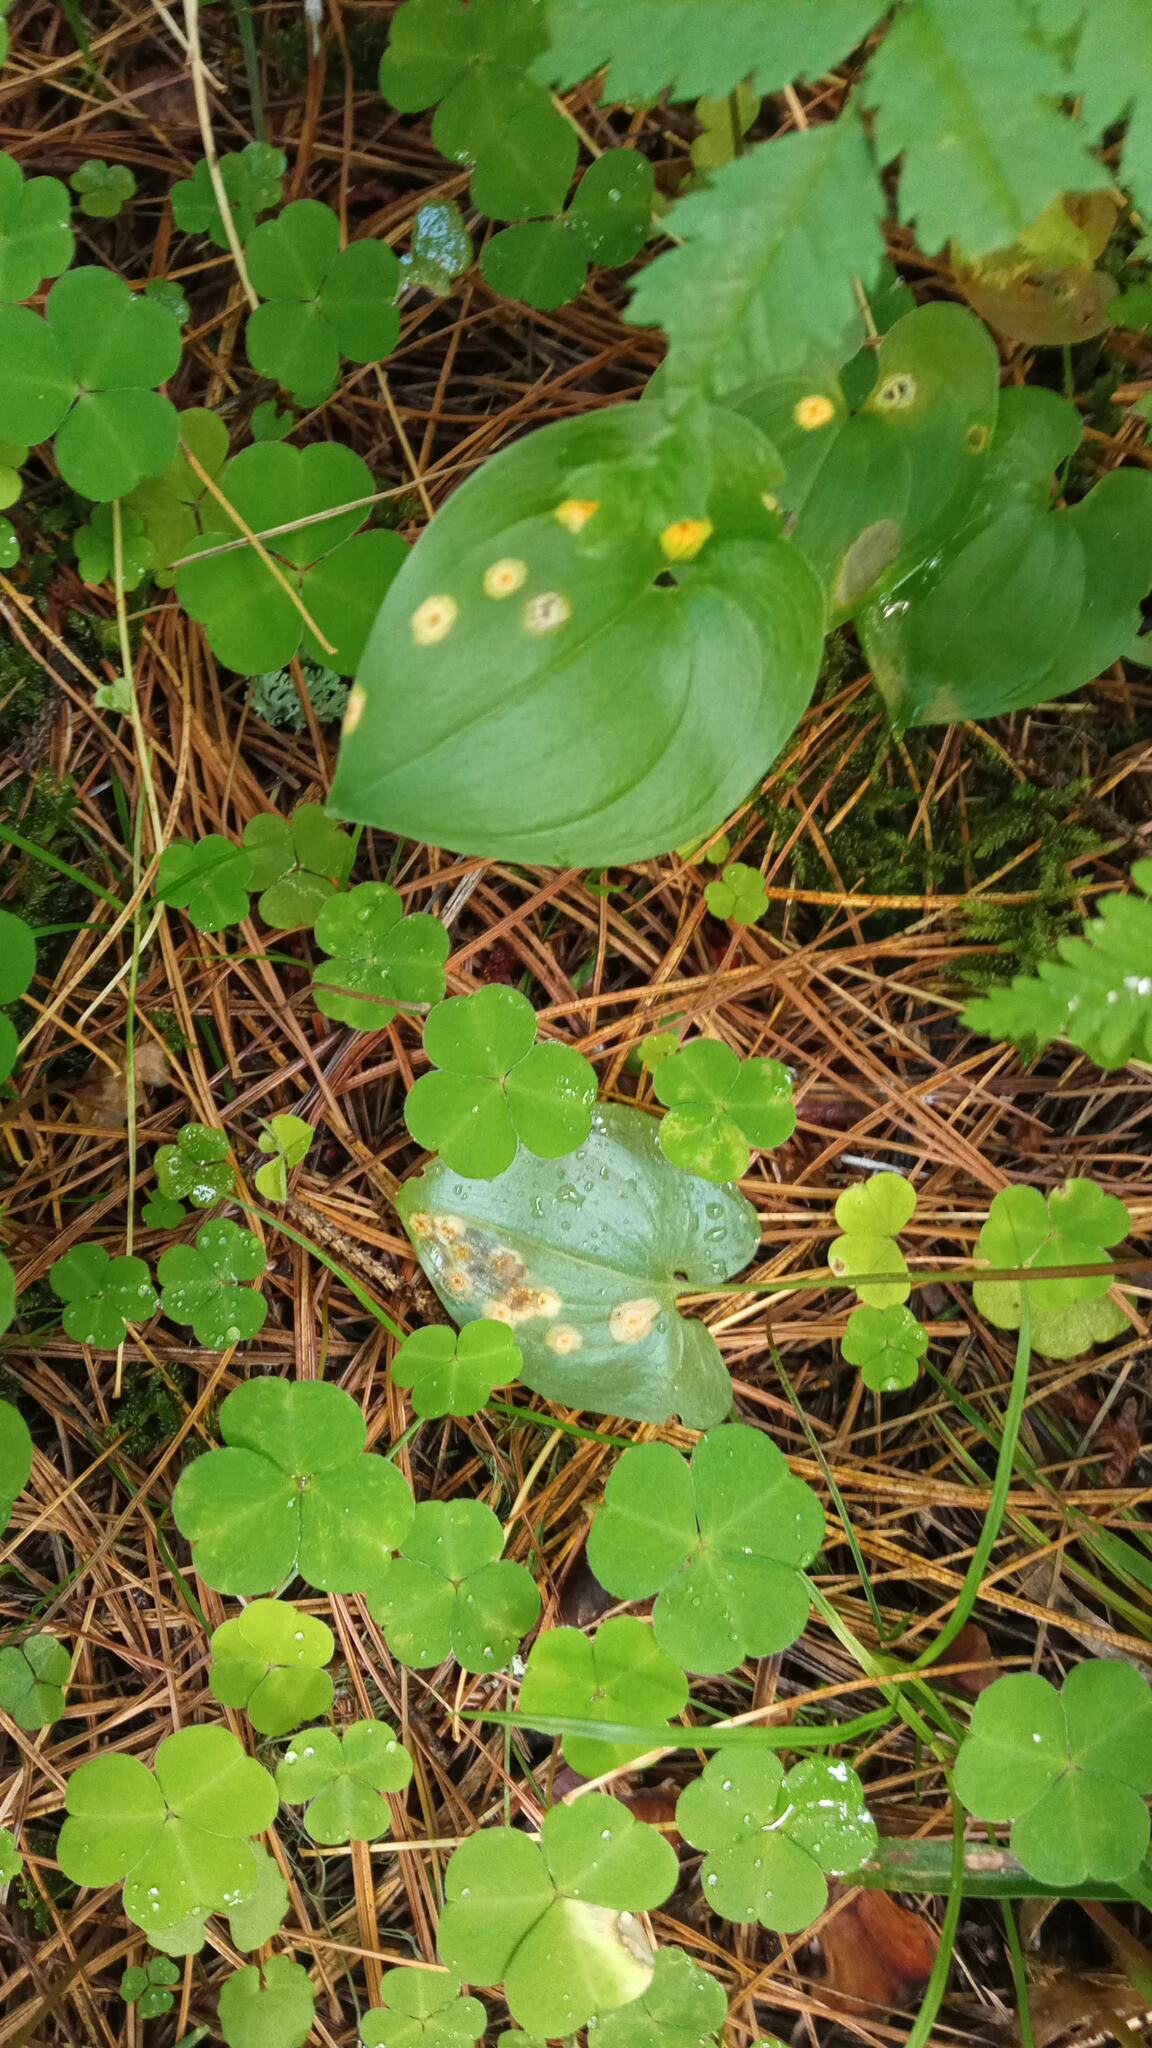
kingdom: Fungi
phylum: Basidiomycota
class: Pucciniomycetes
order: Pucciniales
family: Pucciniaceae
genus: Puccinia
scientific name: Puccinia sessilis
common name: Arum rust
